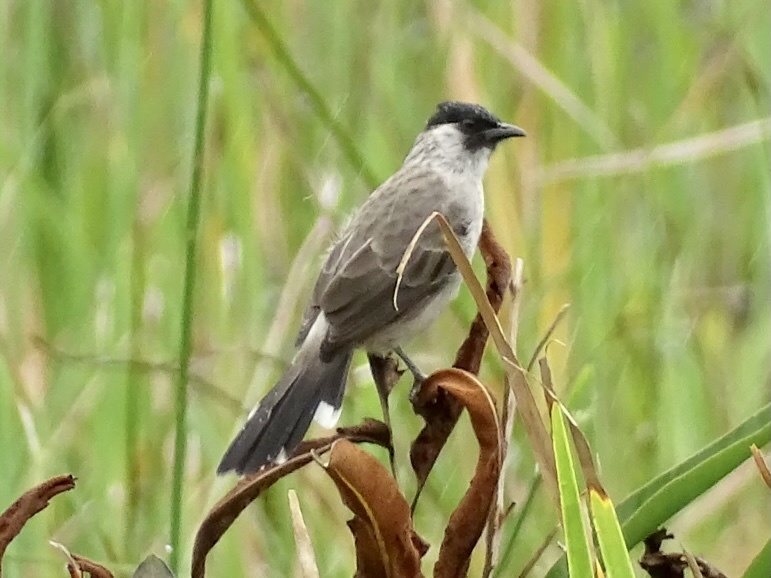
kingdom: Animalia
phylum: Chordata
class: Aves
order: Passeriformes
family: Pycnonotidae
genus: Pycnonotus
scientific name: Pycnonotus aurigaster
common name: Sooty-headed bulbul
